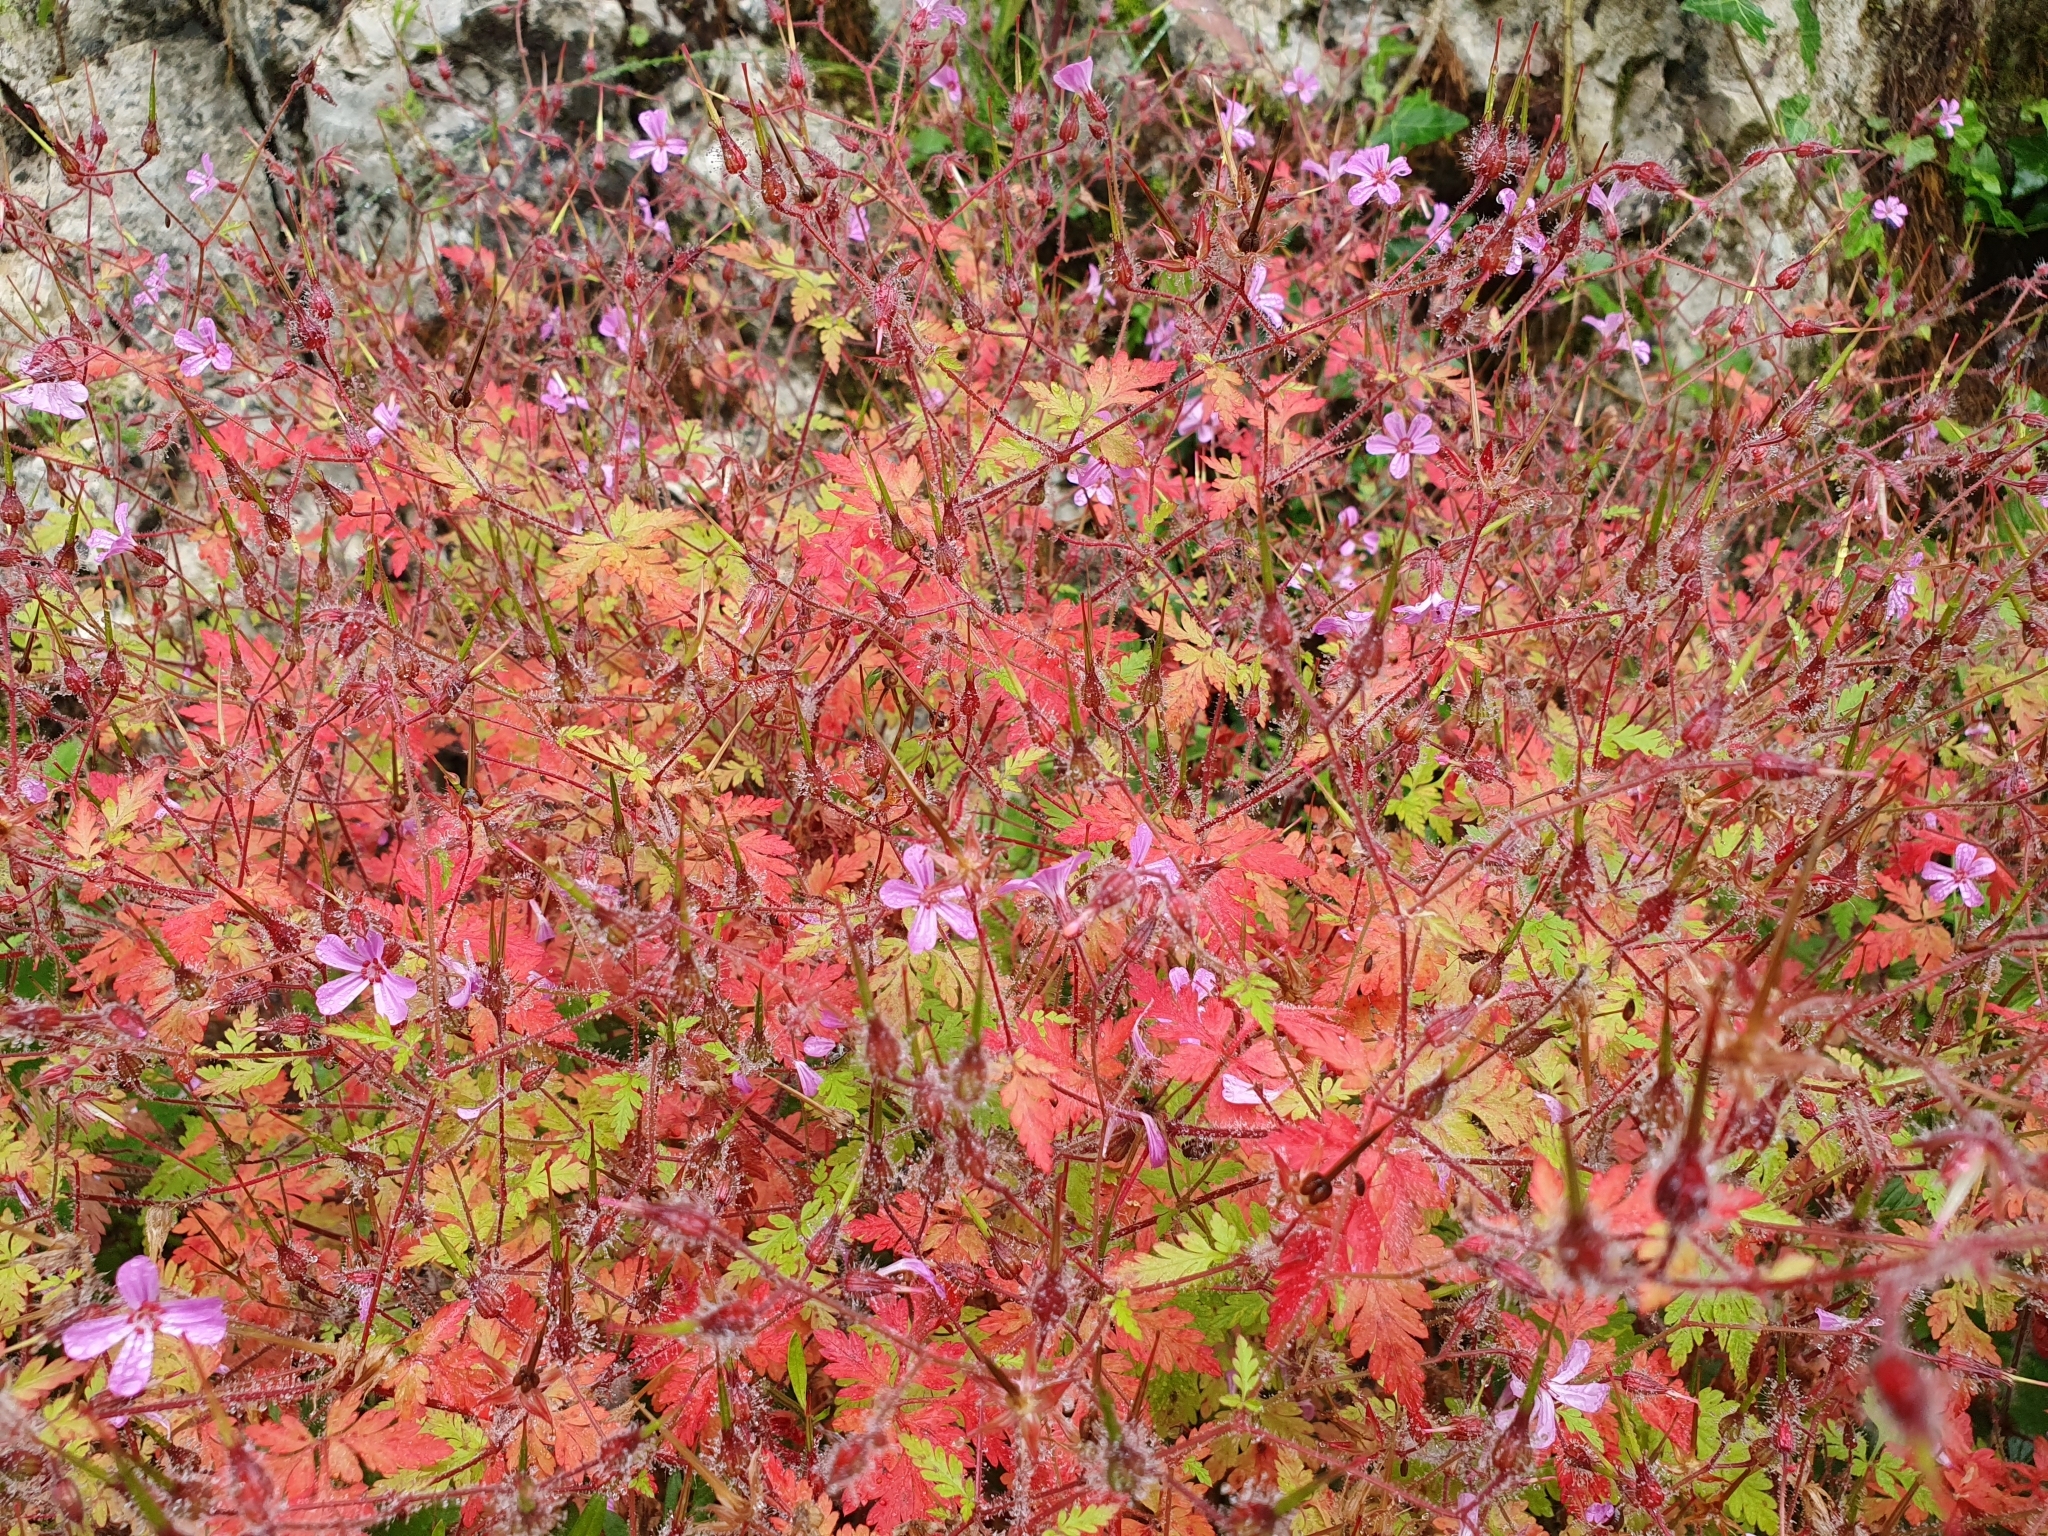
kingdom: Plantae
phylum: Tracheophyta
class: Magnoliopsida
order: Geraniales
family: Geraniaceae
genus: Geranium
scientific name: Geranium robertianum
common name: Herb-robert
